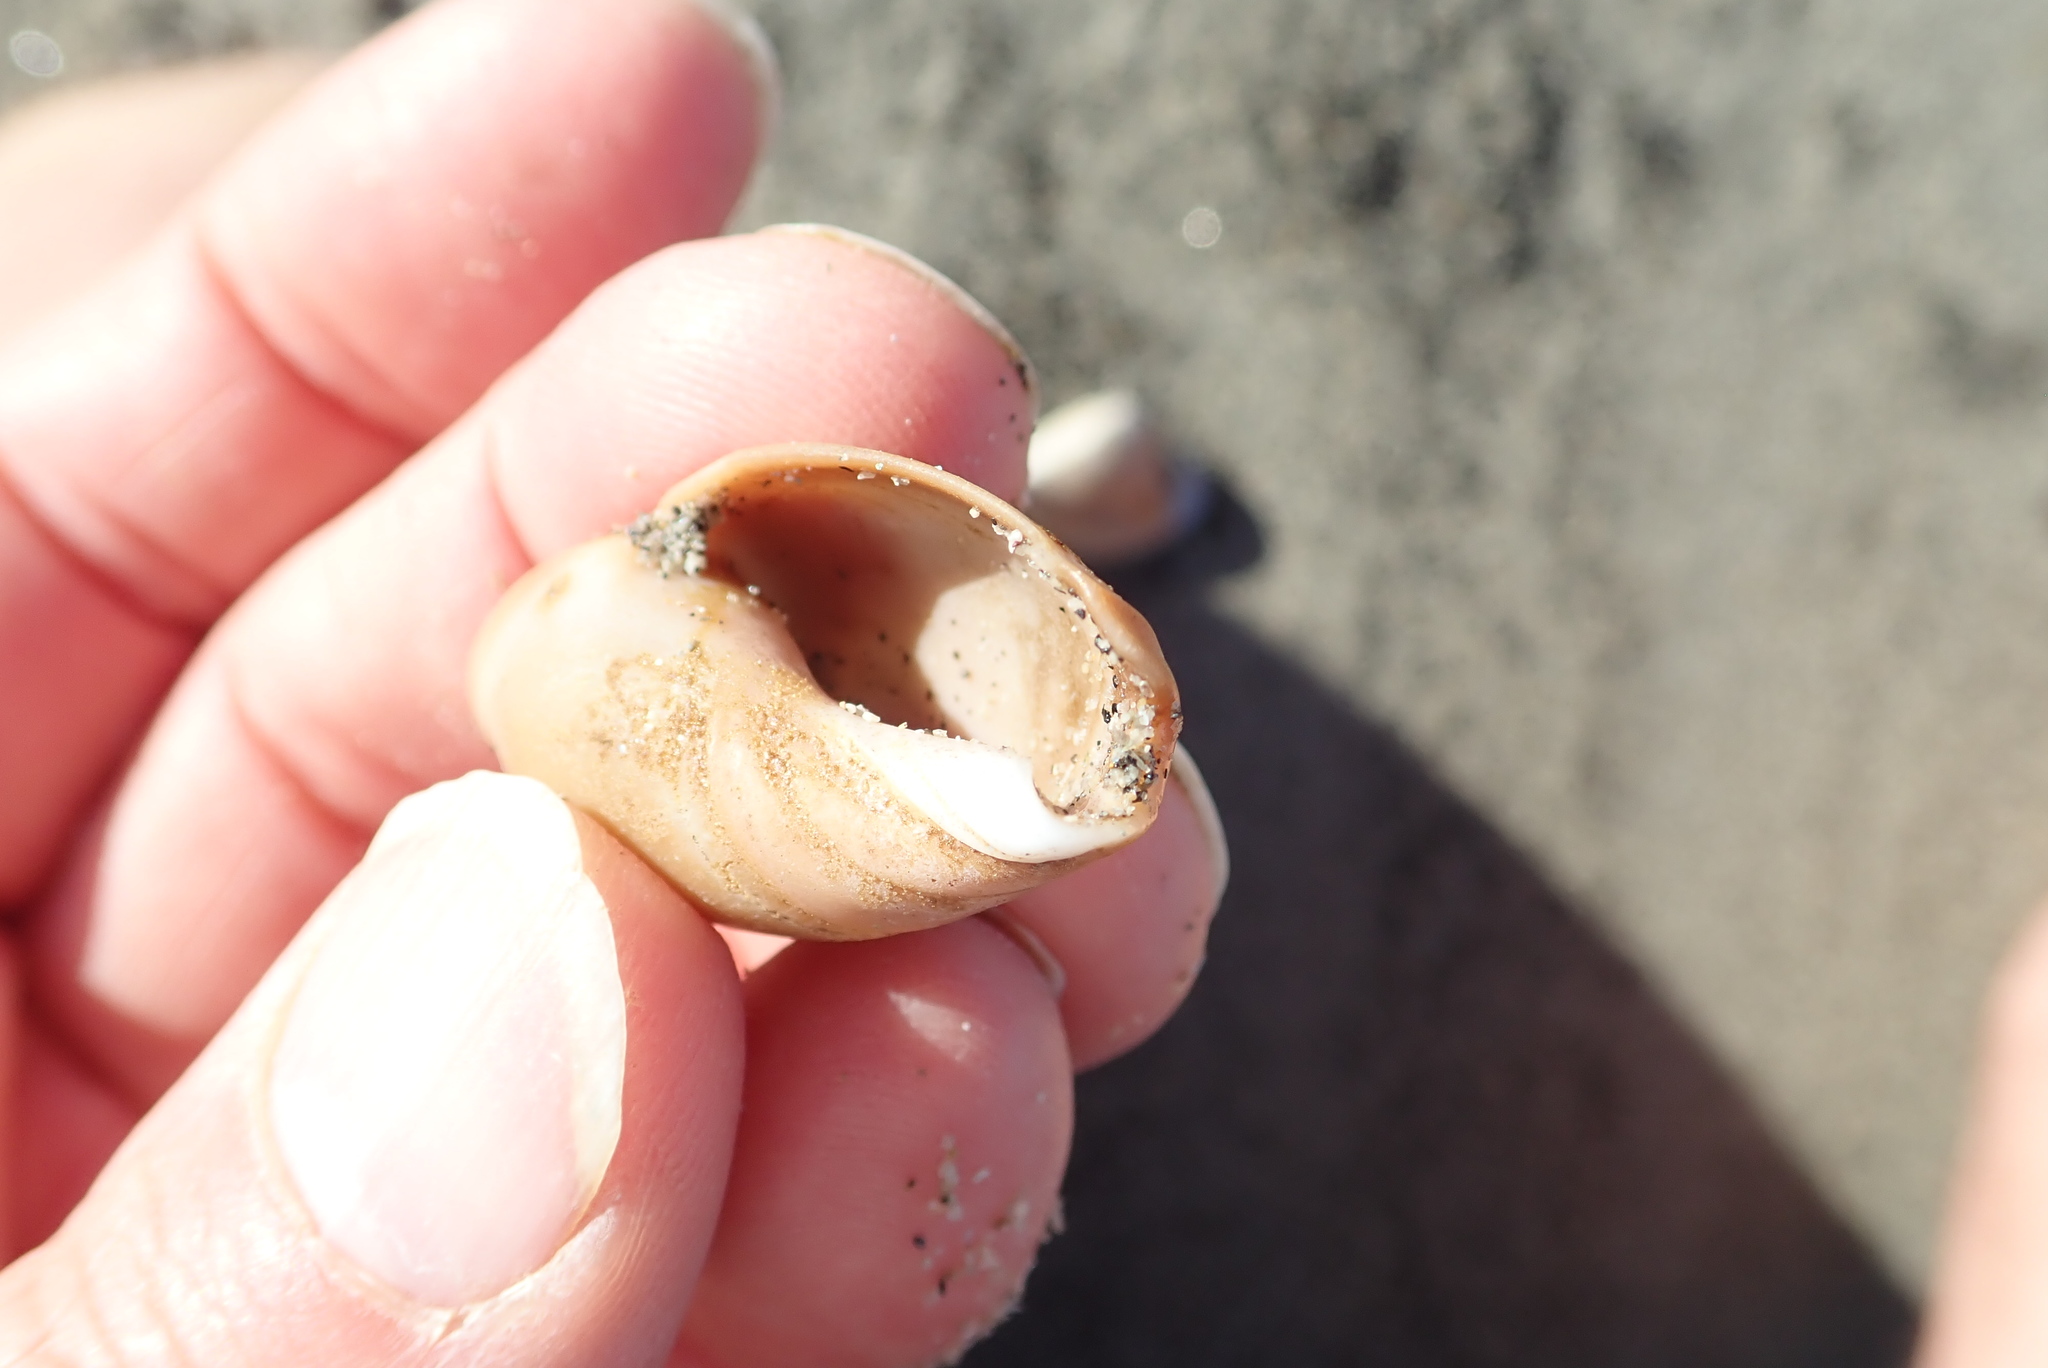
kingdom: Animalia
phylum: Mollusca
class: Gastropoda
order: Neogastropoda
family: Ancillariidae
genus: Amalda
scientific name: Amalda mucronata
